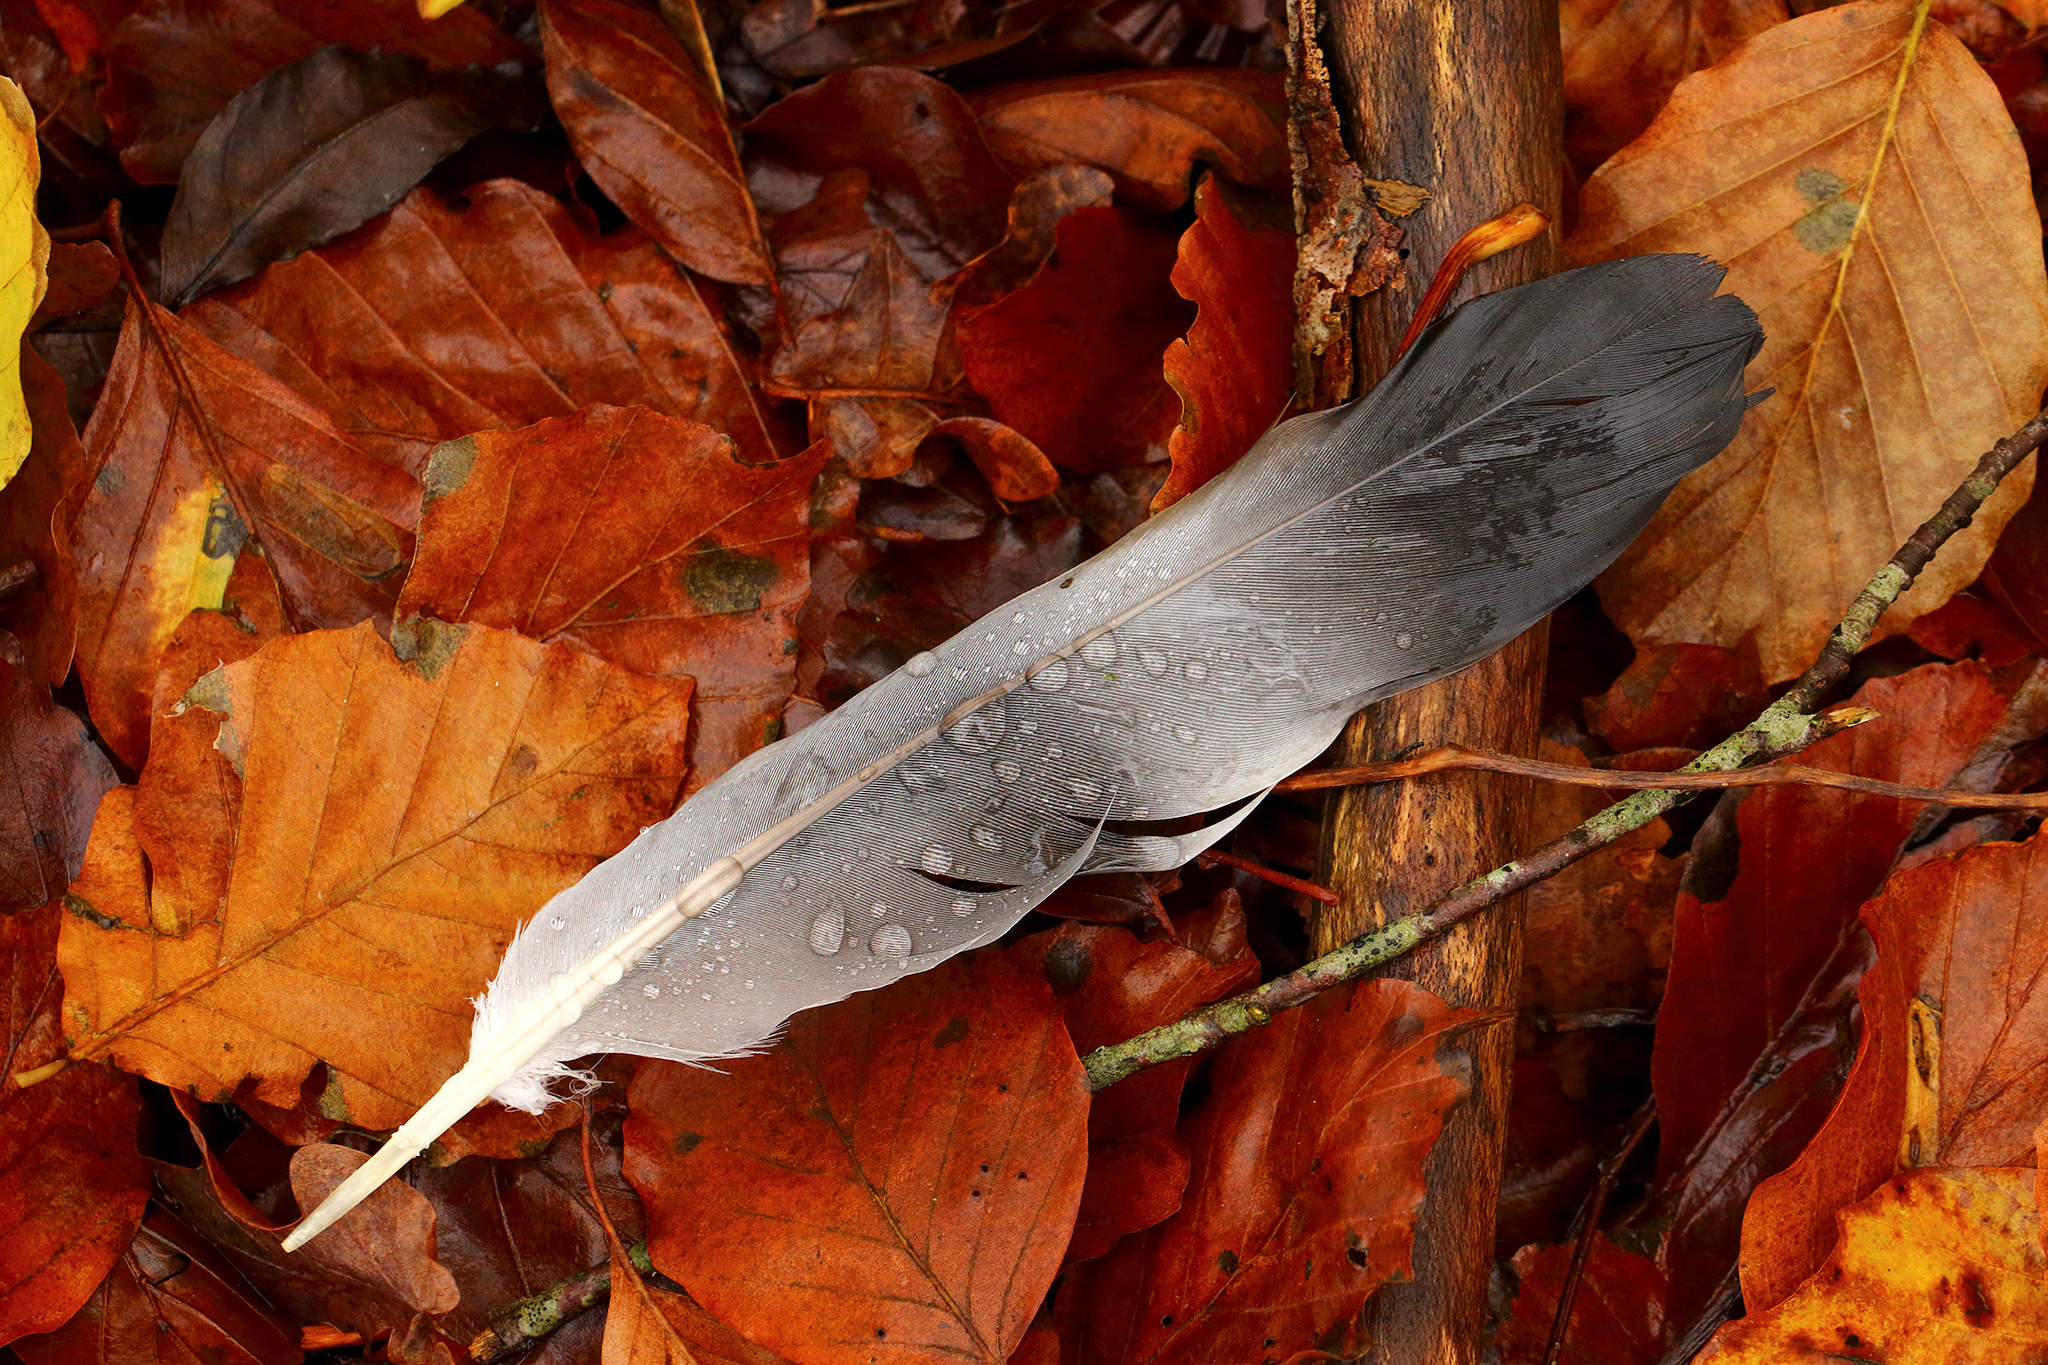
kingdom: Animalia
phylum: Chordata
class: Aves
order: Columbiformes
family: Columbidae
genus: Columba
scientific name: Columba palumbus
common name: Common wood pigeon
